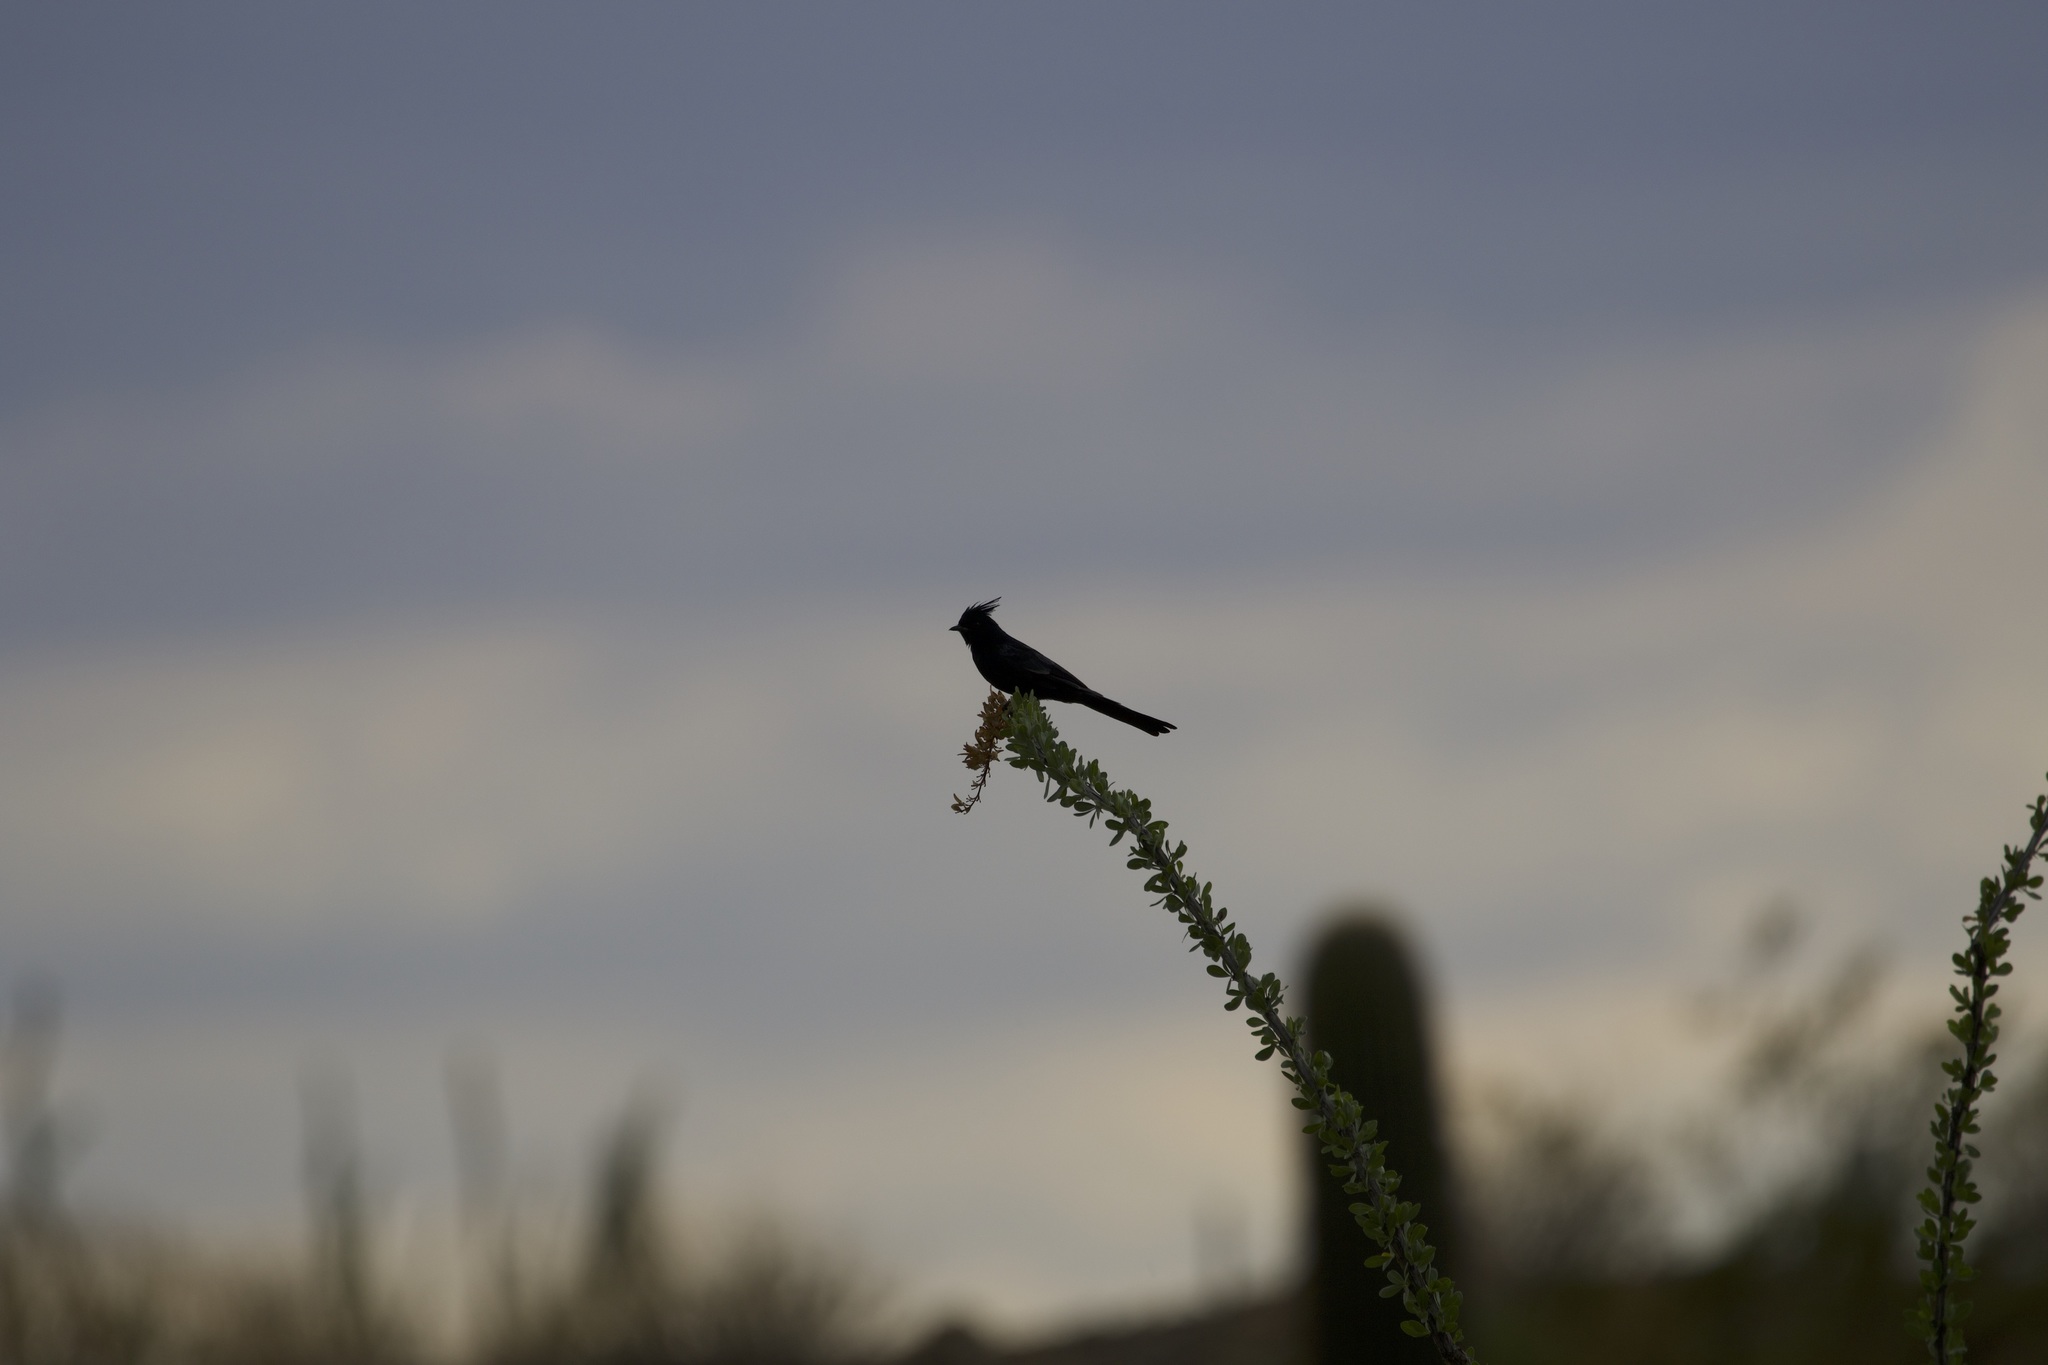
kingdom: Animalia
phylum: Chordata
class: Aves
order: Passeriformes
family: Ptilogonatidae
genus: Phainopepla
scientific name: Phainopepla nitens
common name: Phainopepla
